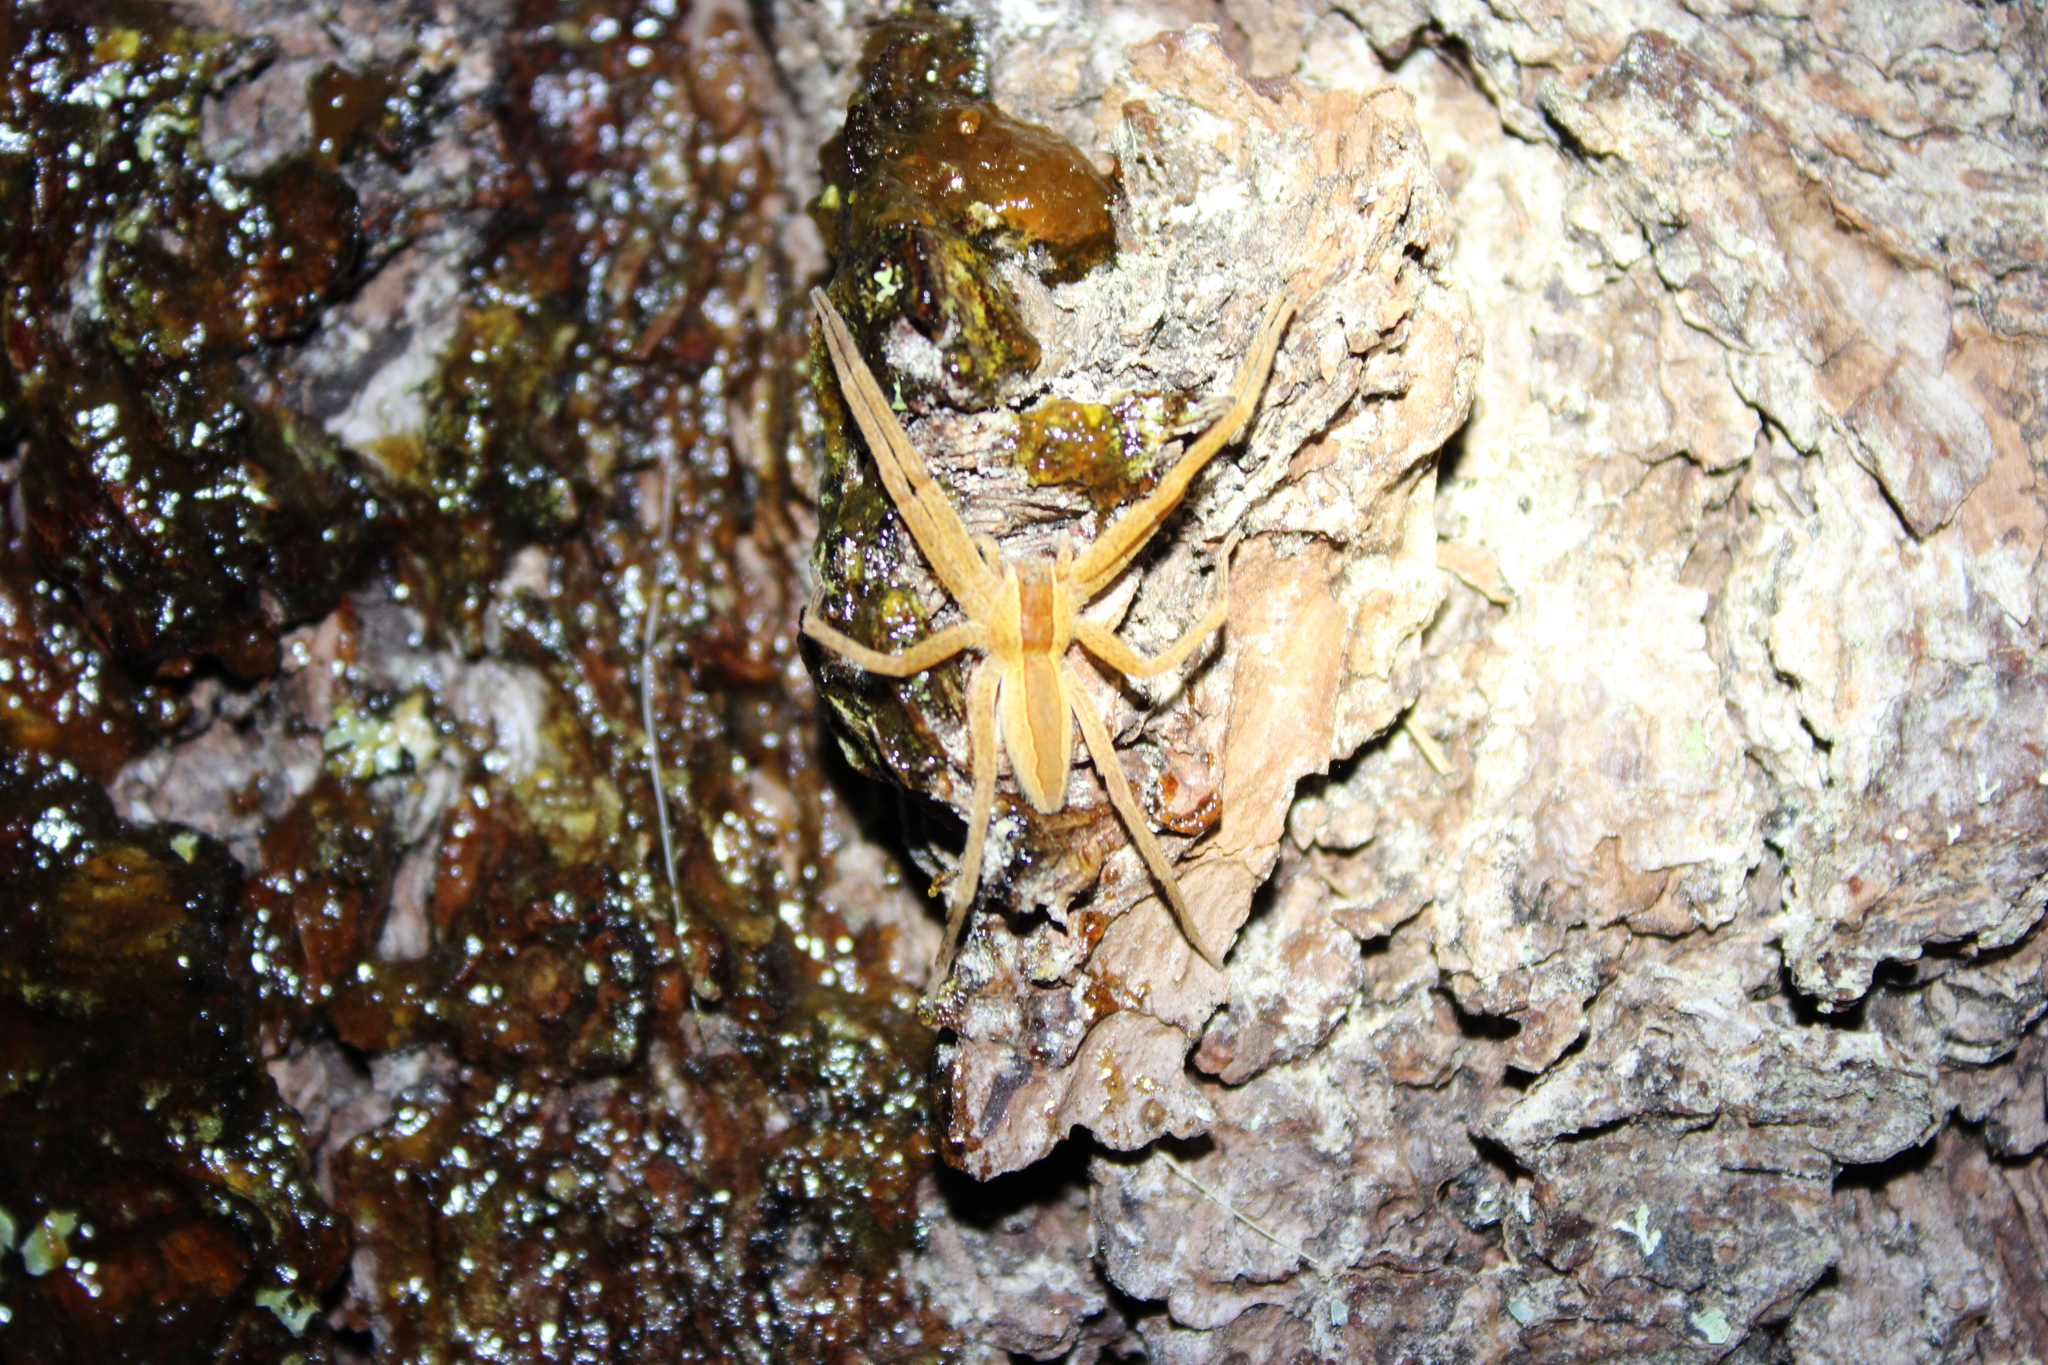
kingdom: Animalia
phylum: Arthropoda
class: Arachnida
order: Araneae
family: Pisauridae
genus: Pisaurina
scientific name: Pisaurina mira
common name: American nursery web spider
